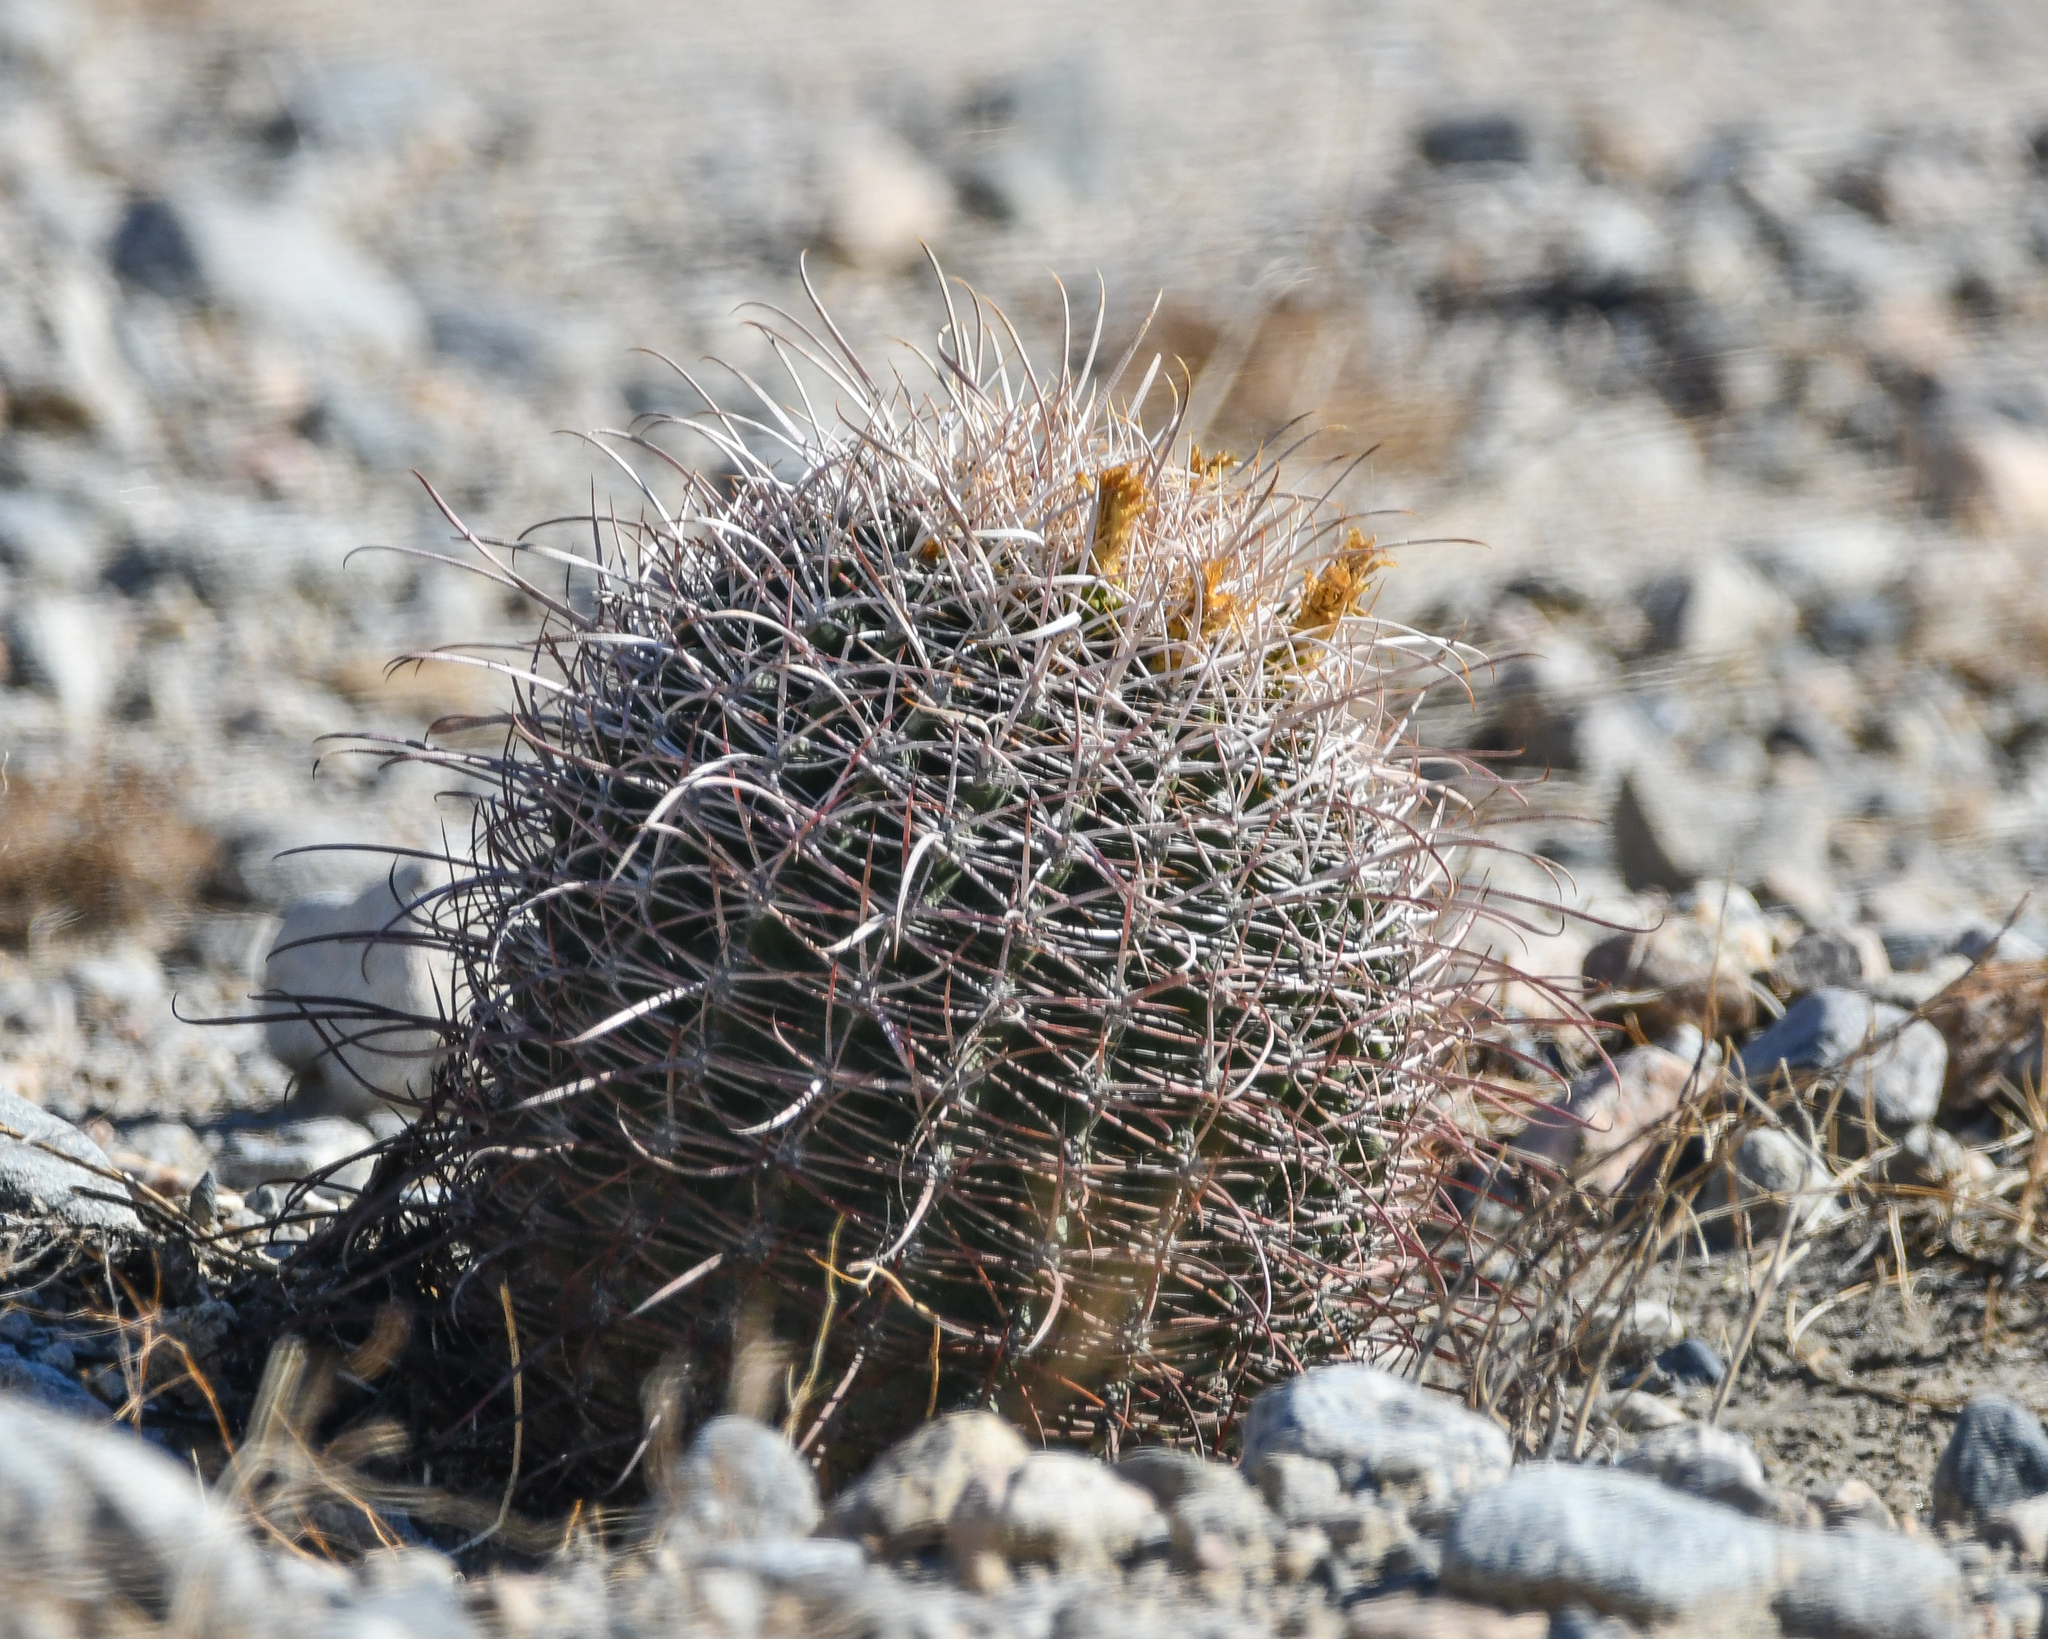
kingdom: Plantae
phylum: Tracheophyta
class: Magnoliopsida
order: Caryophyllales
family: Cactaceae
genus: Ferocactus
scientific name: Ferocactus cylindraceus
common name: California barrel cactus
